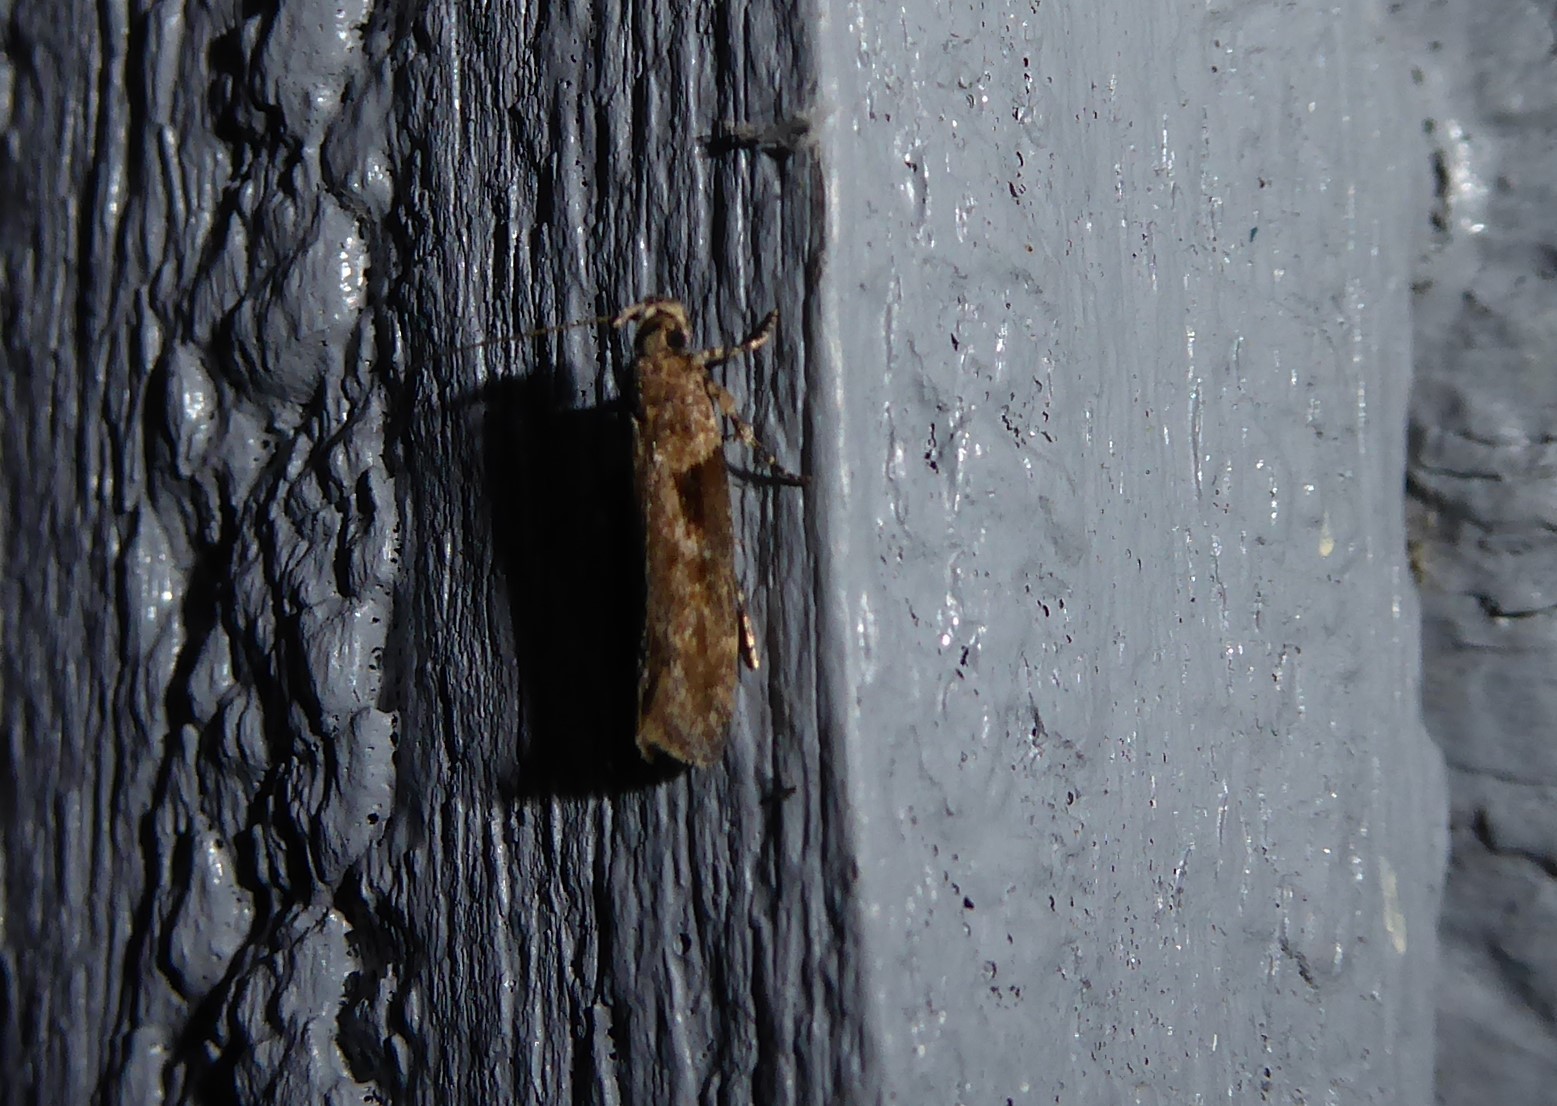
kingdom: Animalia
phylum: Arthropoda
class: Insecta
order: Lepidoptera
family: Gelechiidae
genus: Symmetrischema
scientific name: Symmetrischema tangolias
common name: Moth
